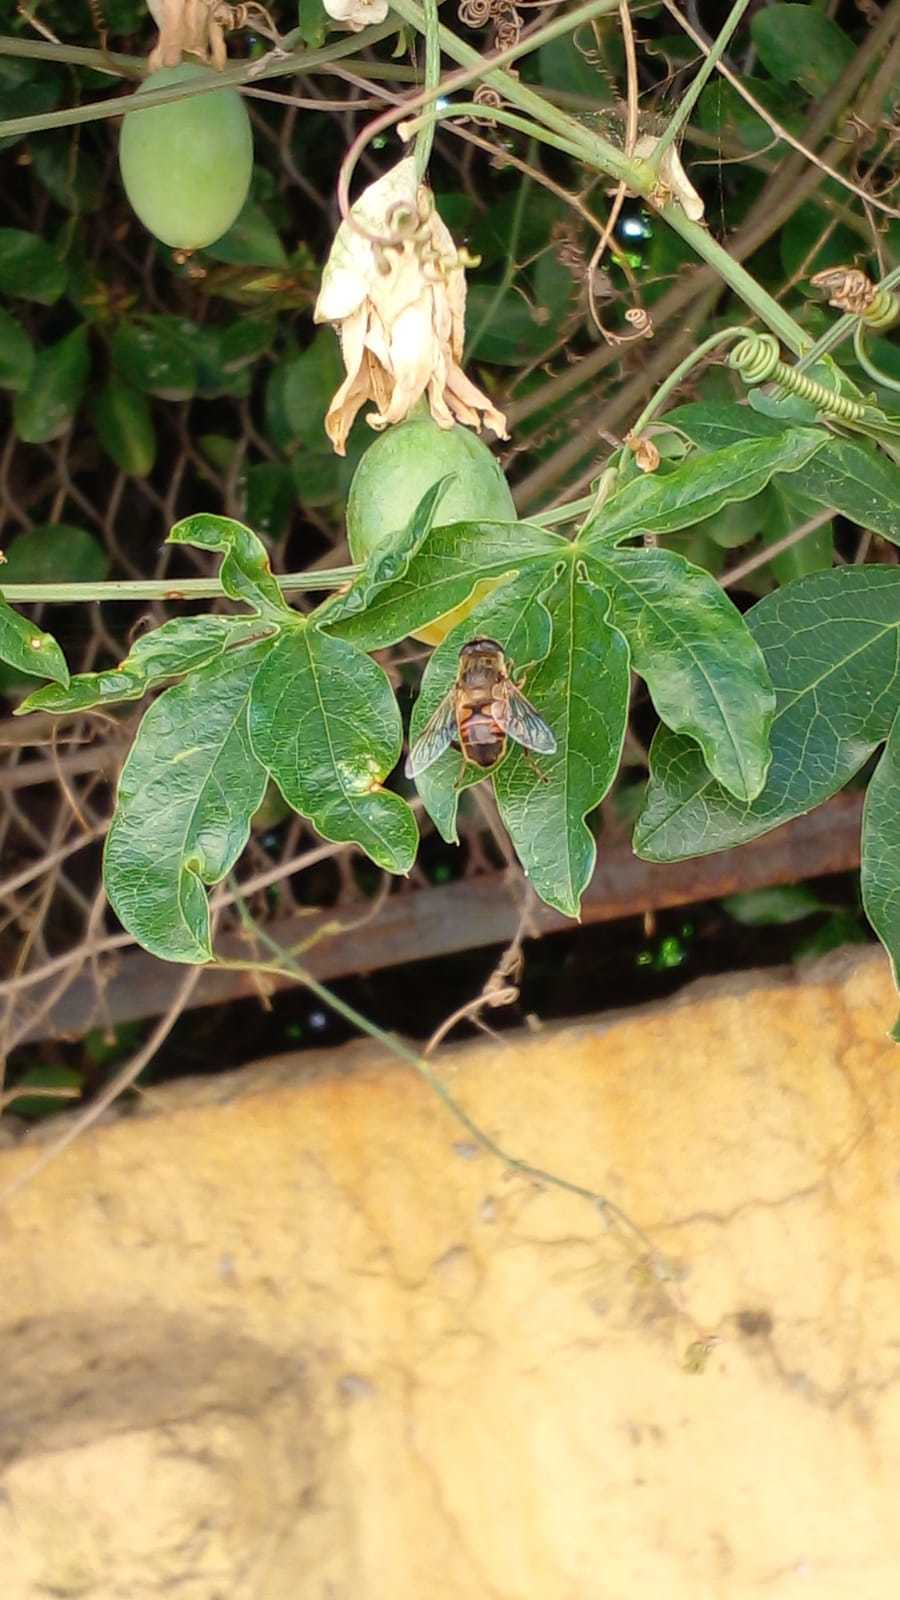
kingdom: Animalia
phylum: Arthropoda
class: Insecta
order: Diptera
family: Syrphidae
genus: Eristalis
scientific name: Eristalis tenax
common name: Drone fly
